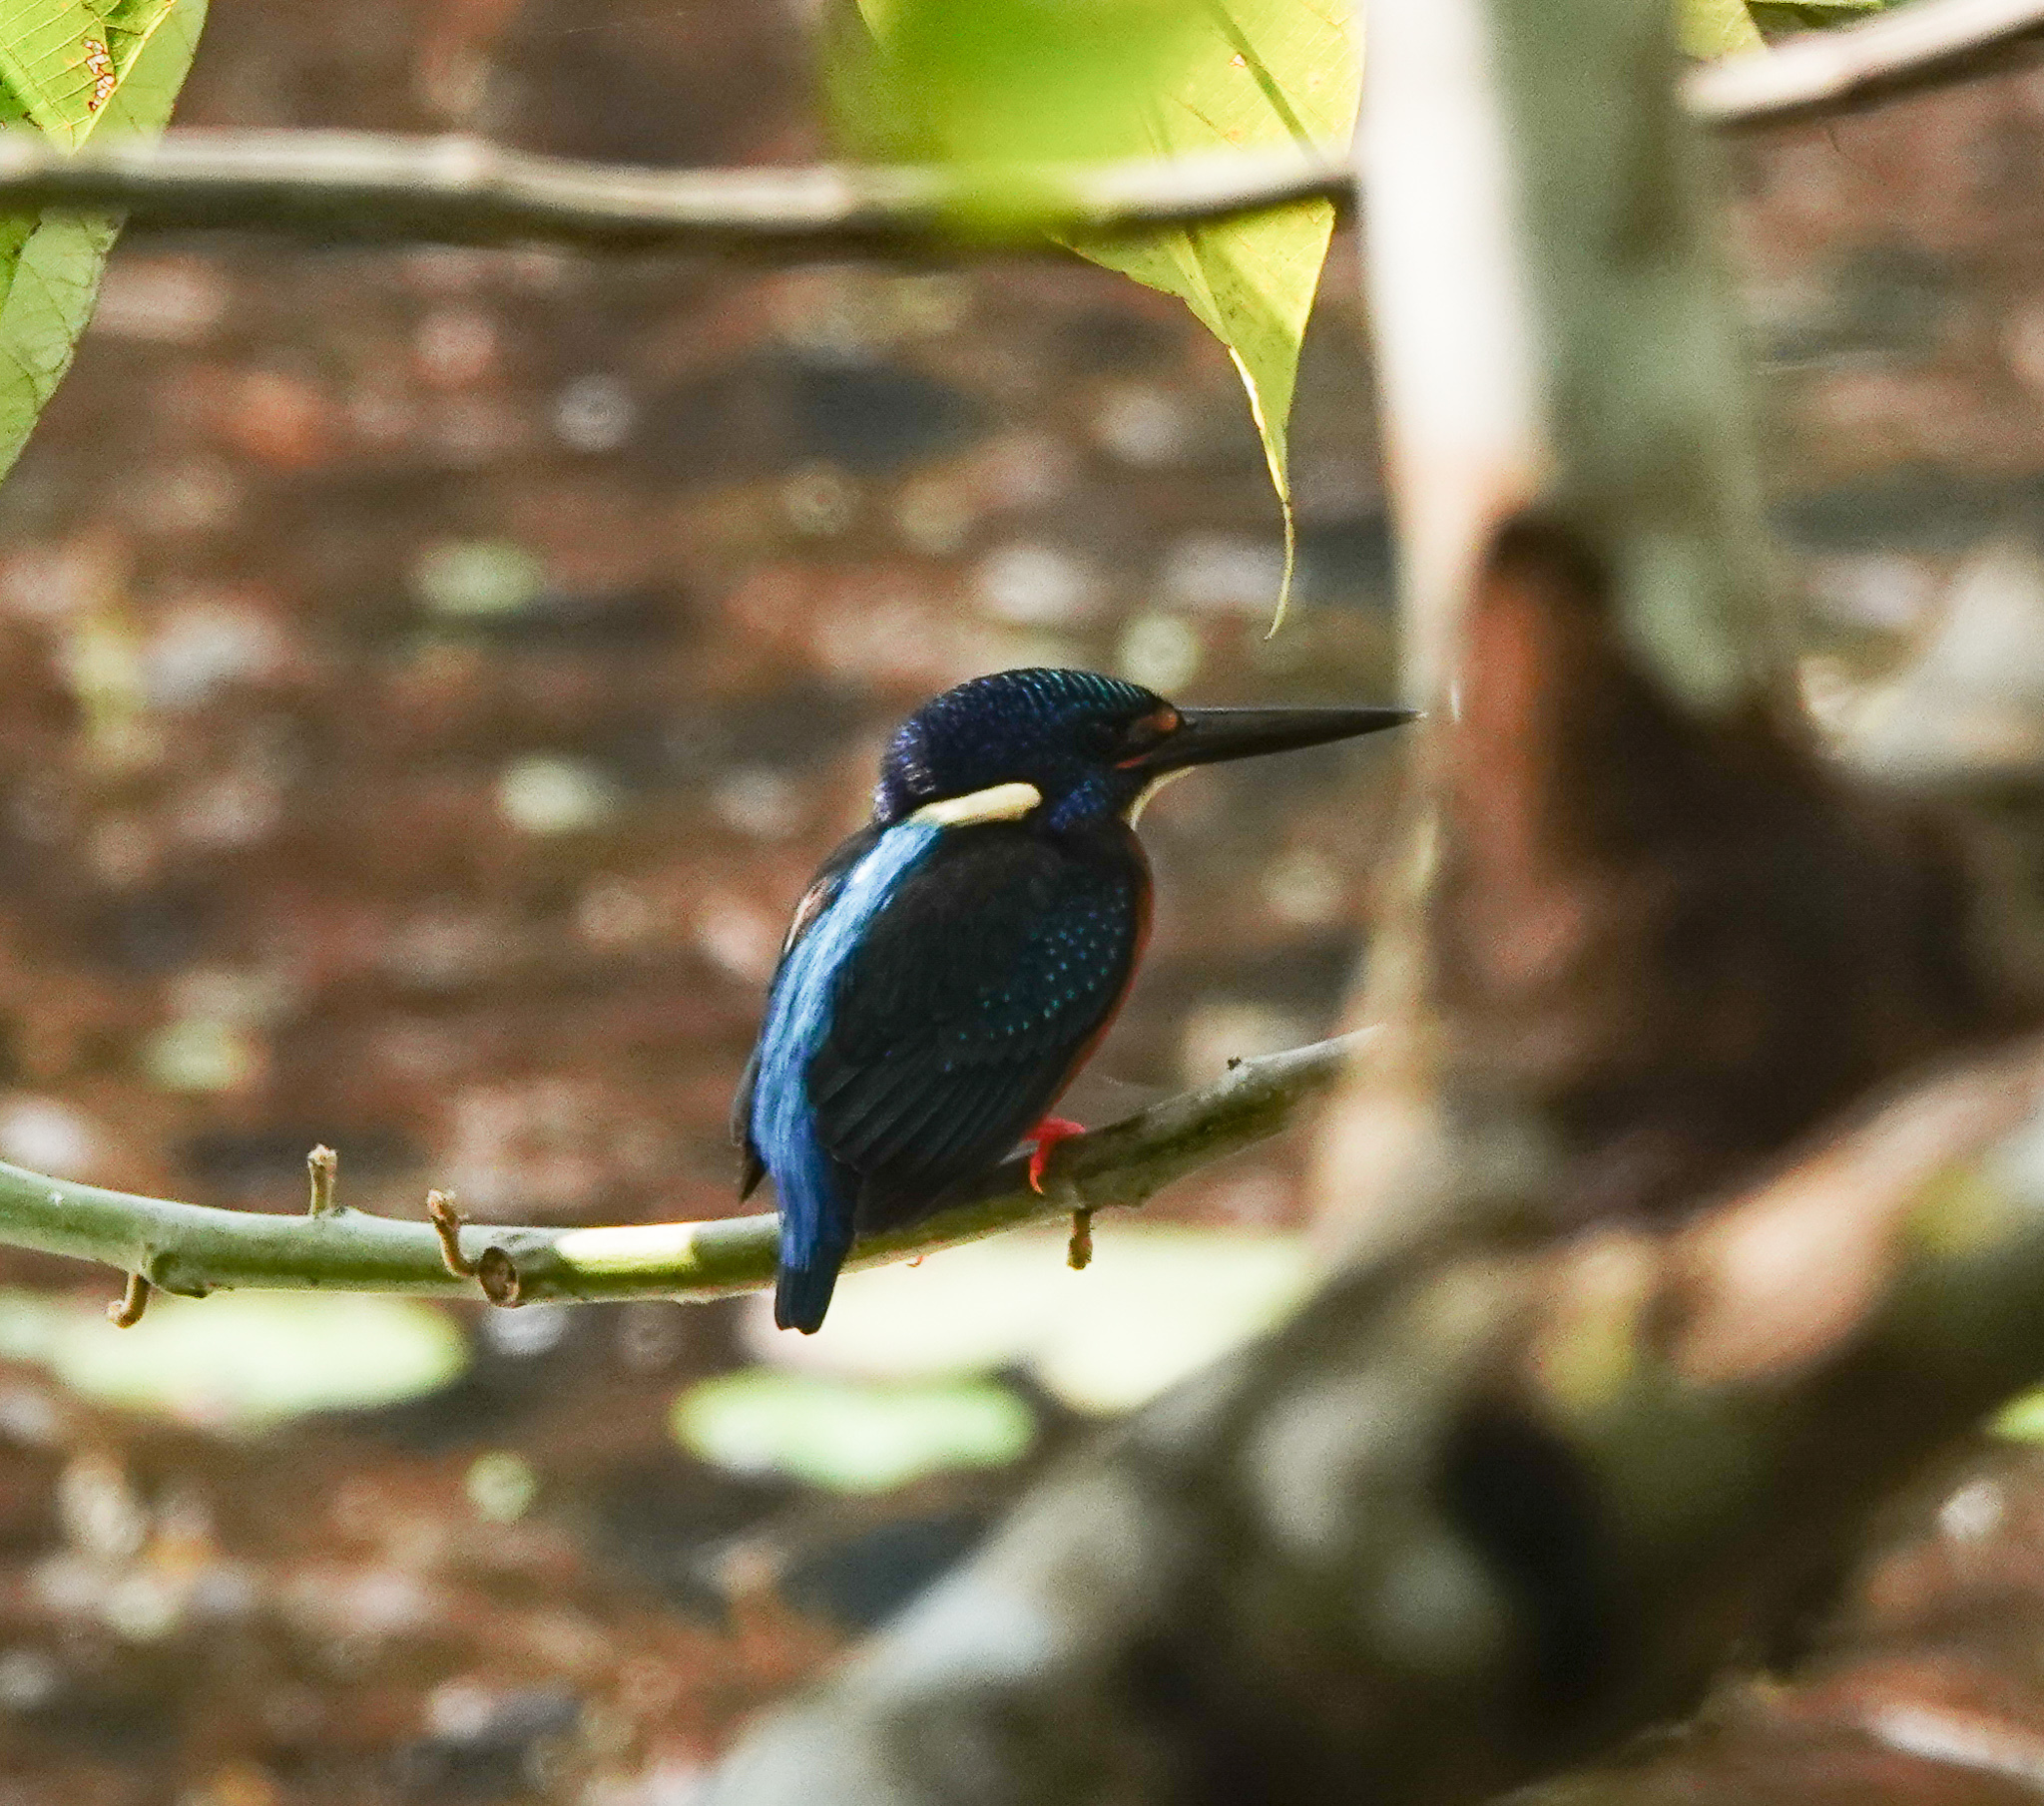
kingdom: Animalia
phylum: Chordata
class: Aves
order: Coraciiformes
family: Alcedinidae
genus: Alcedo
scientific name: Alcedo meninting
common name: Blue-eared kingfisher
